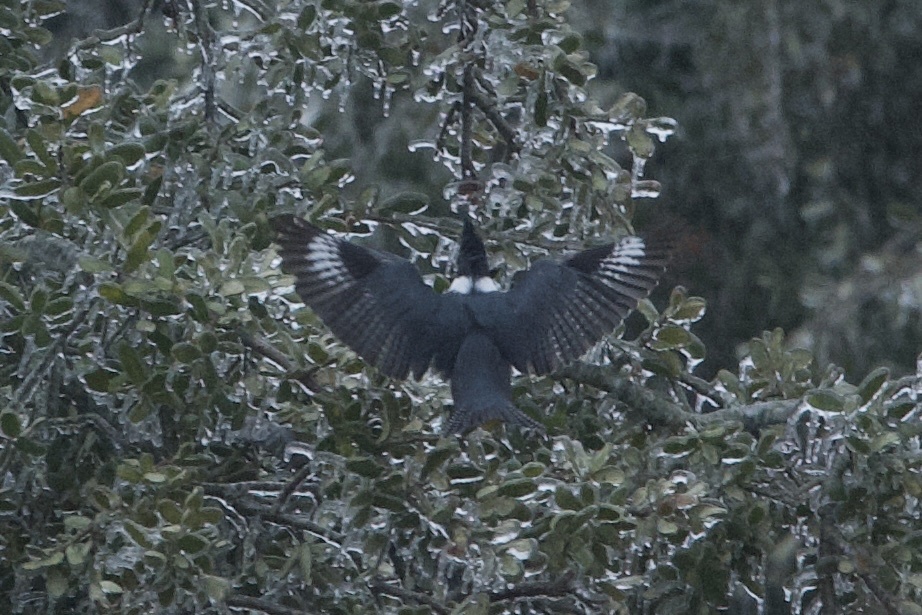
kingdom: Animalia
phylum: Chordata
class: Aves
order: Coraciiformes
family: Alcedinidae
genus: Megaceryle
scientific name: Megaceryle alcyon
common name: Belted kingfisher
